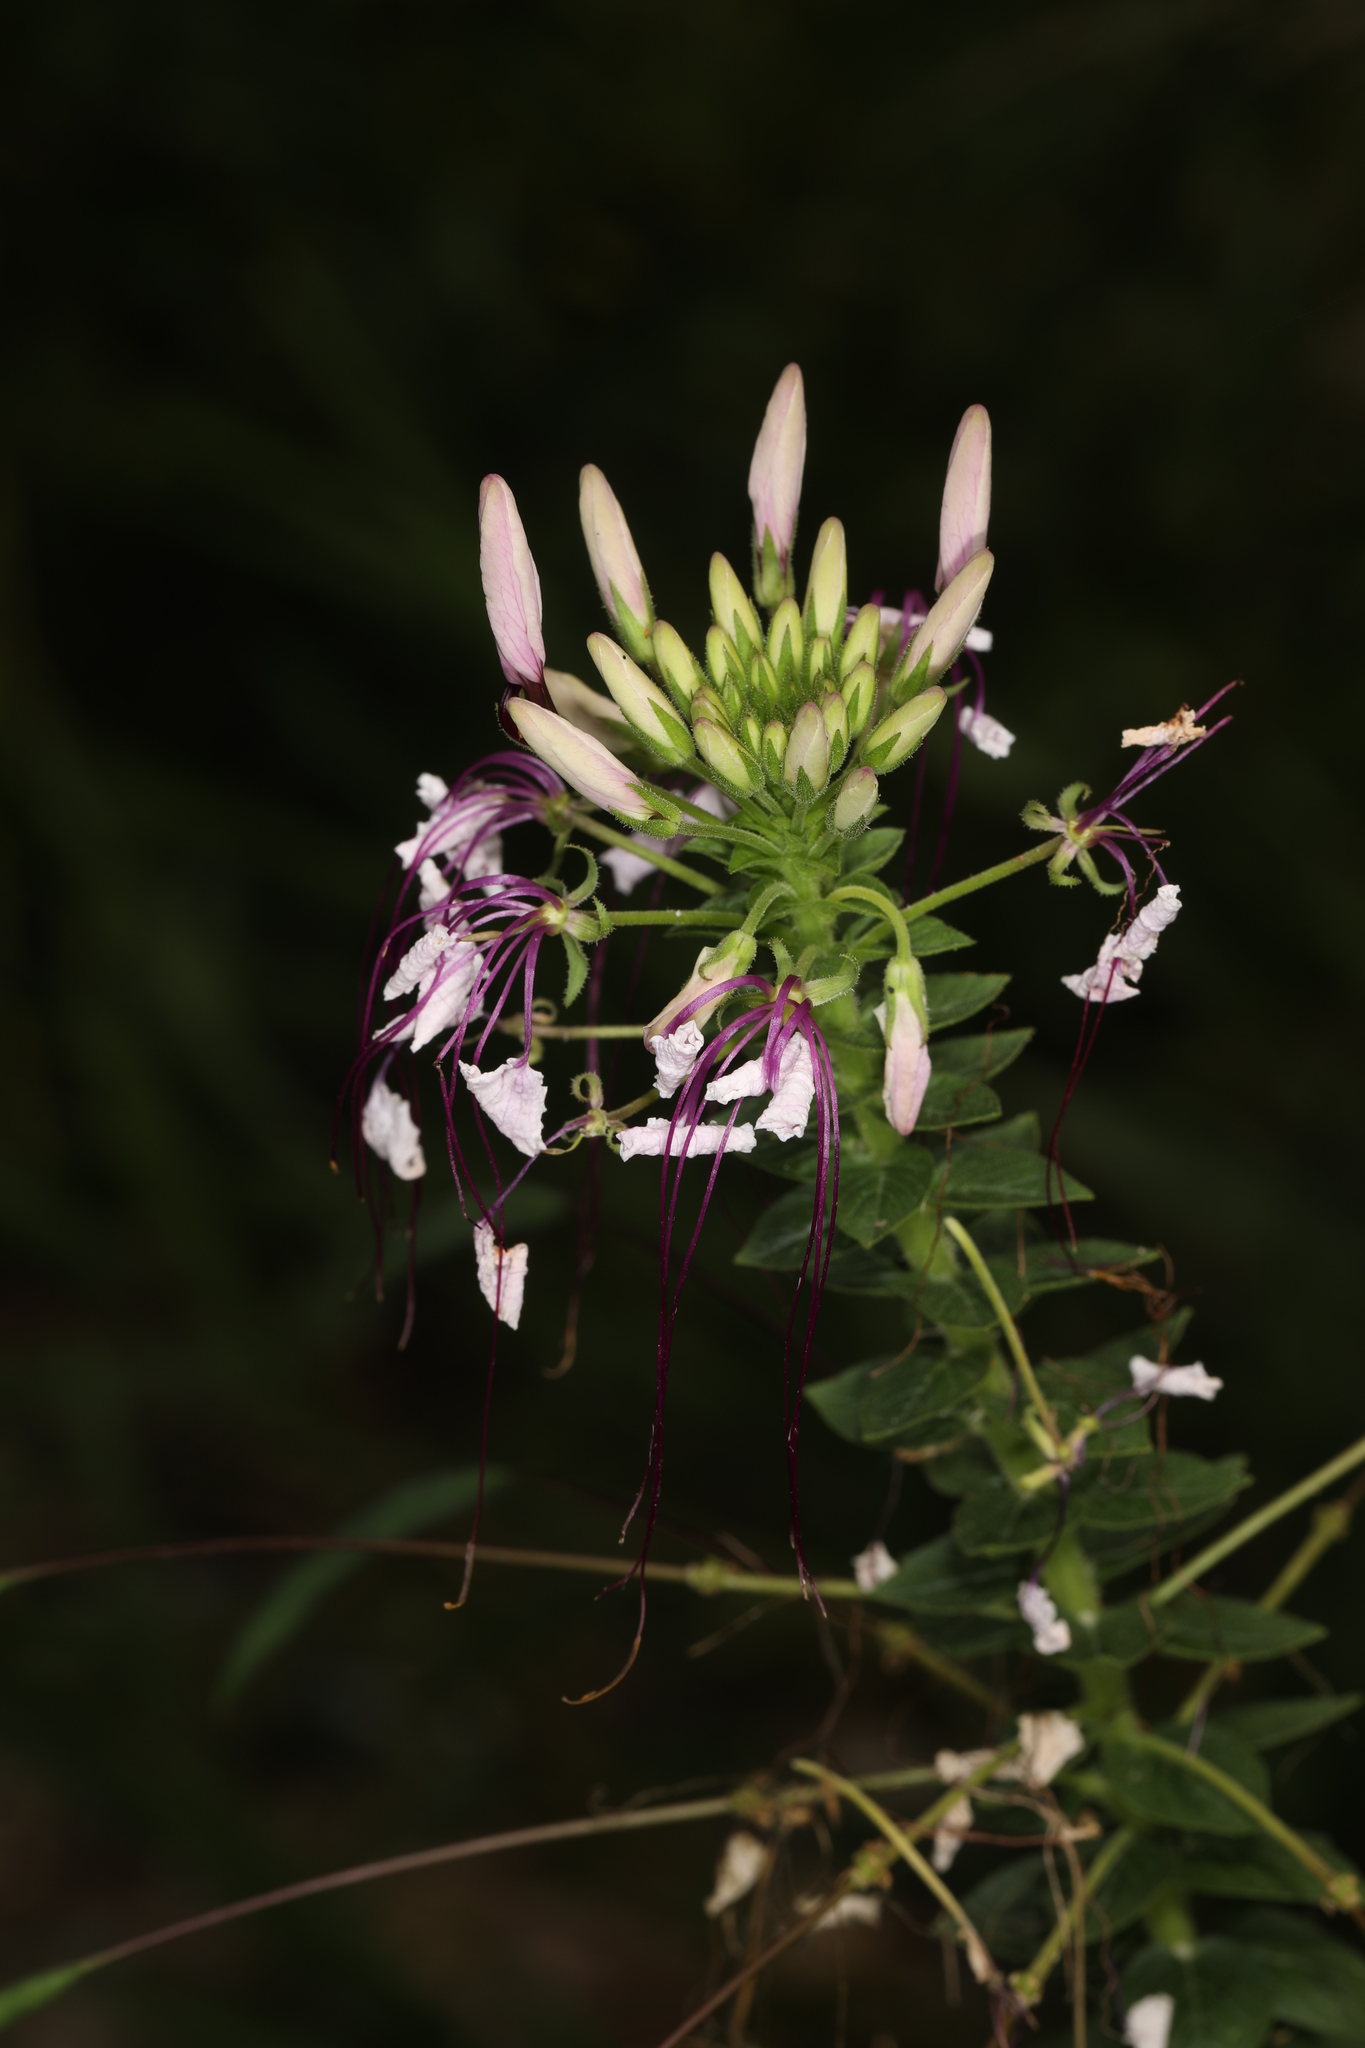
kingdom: Plantae
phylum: Tracheophyta
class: Magnoliopsida
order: Brassicales
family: Cleomaceae
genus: Tarenaya
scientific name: Tarenaya houtteana
